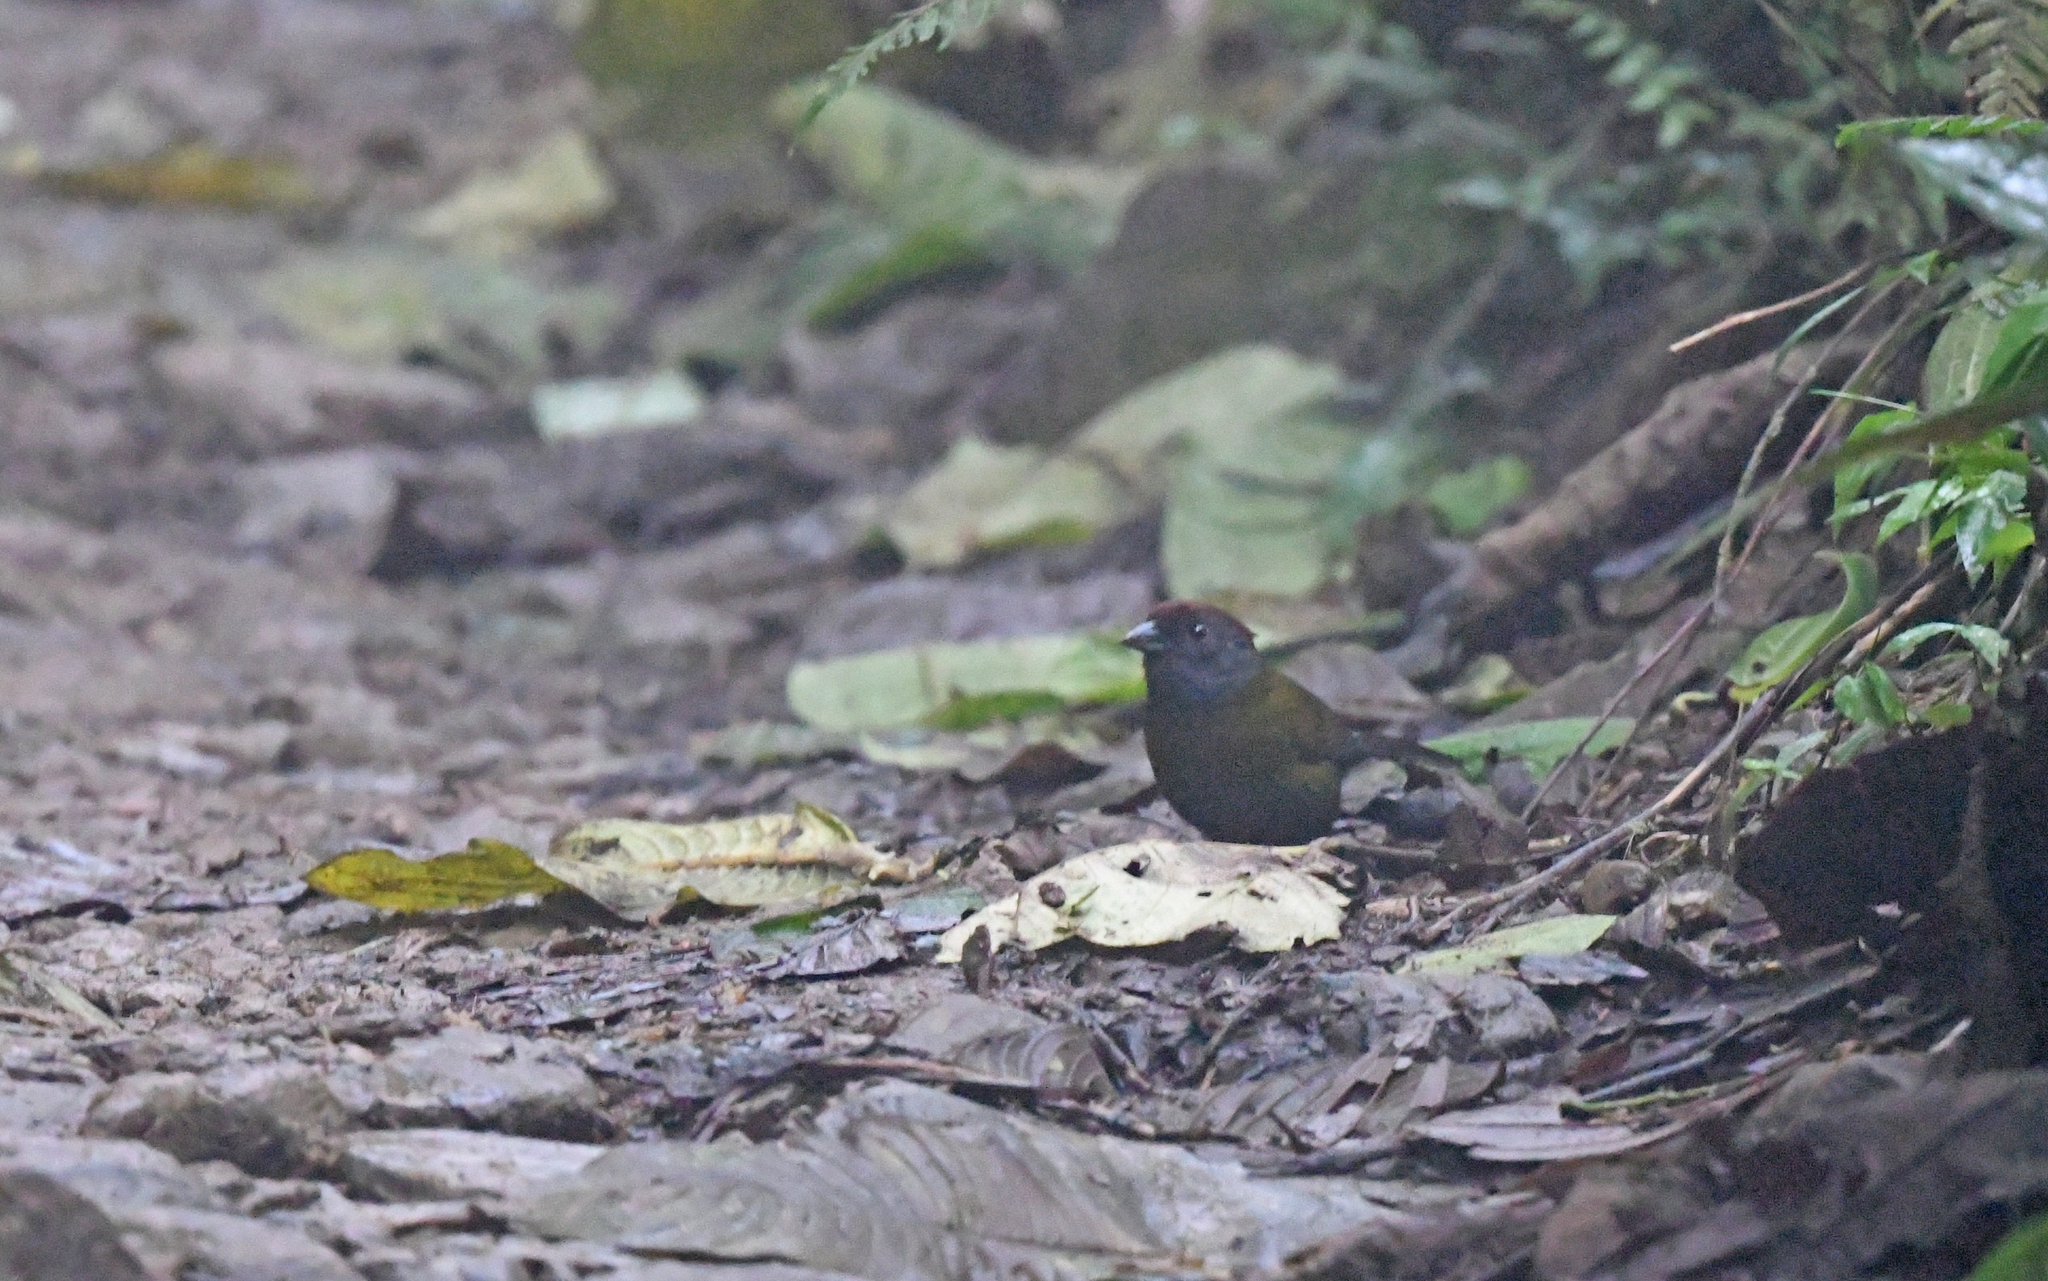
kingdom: Animalia
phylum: Chordata
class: Aves
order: Passeriformes
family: Passerellidae
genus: Arremon
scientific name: Arremon castaneiceps
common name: Olive finch
